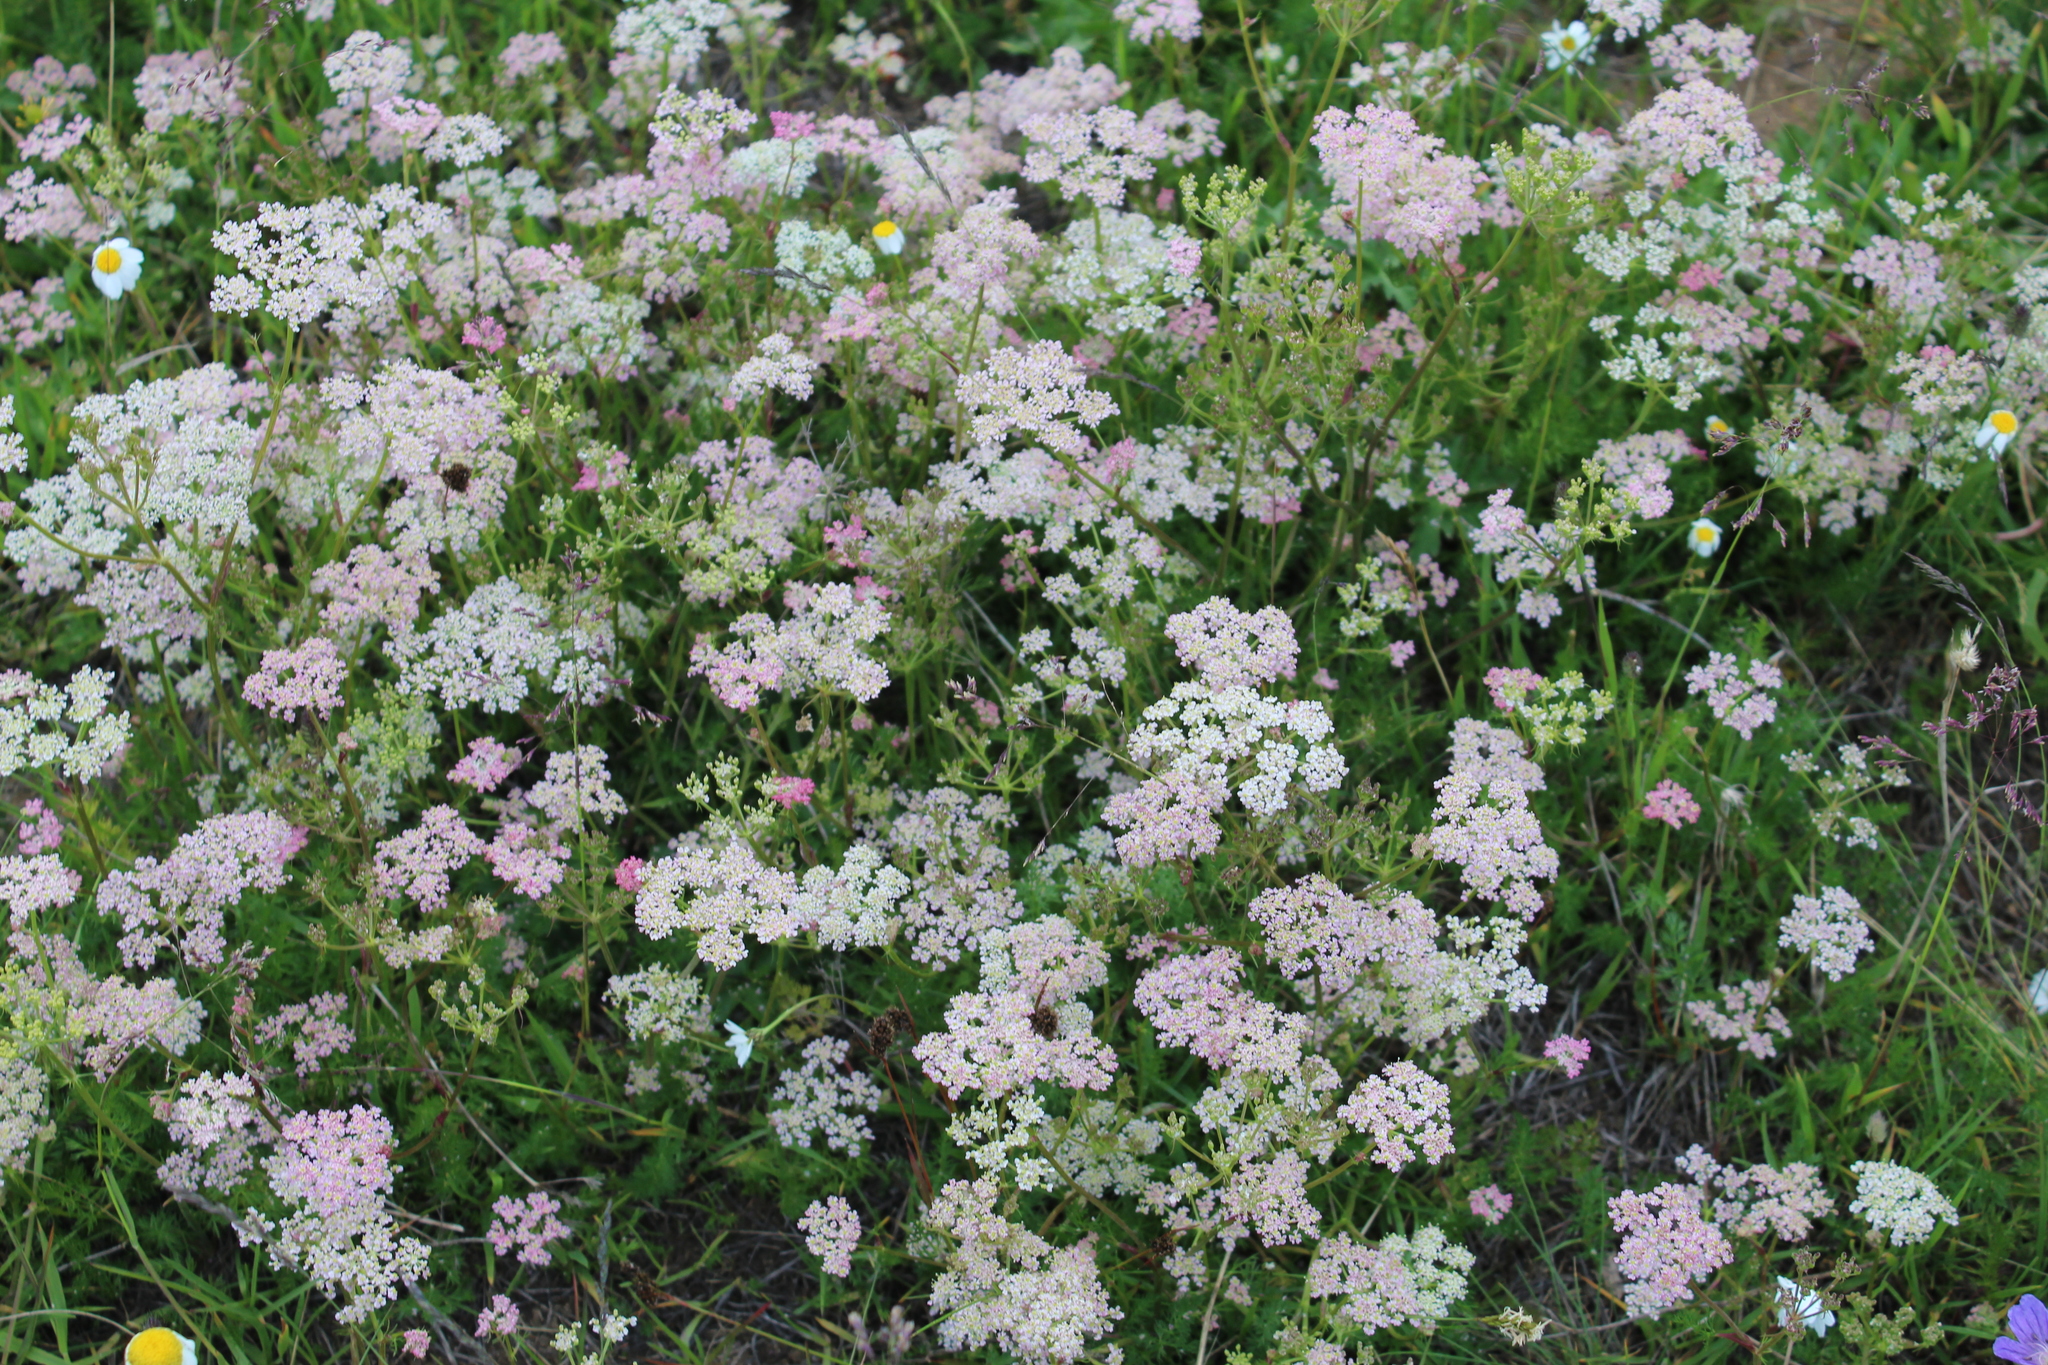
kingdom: Plantae
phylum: Tracheophyta
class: Magnoliopsida
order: Apiales
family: Apiaceae
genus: Carum
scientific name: Carum meifolium
